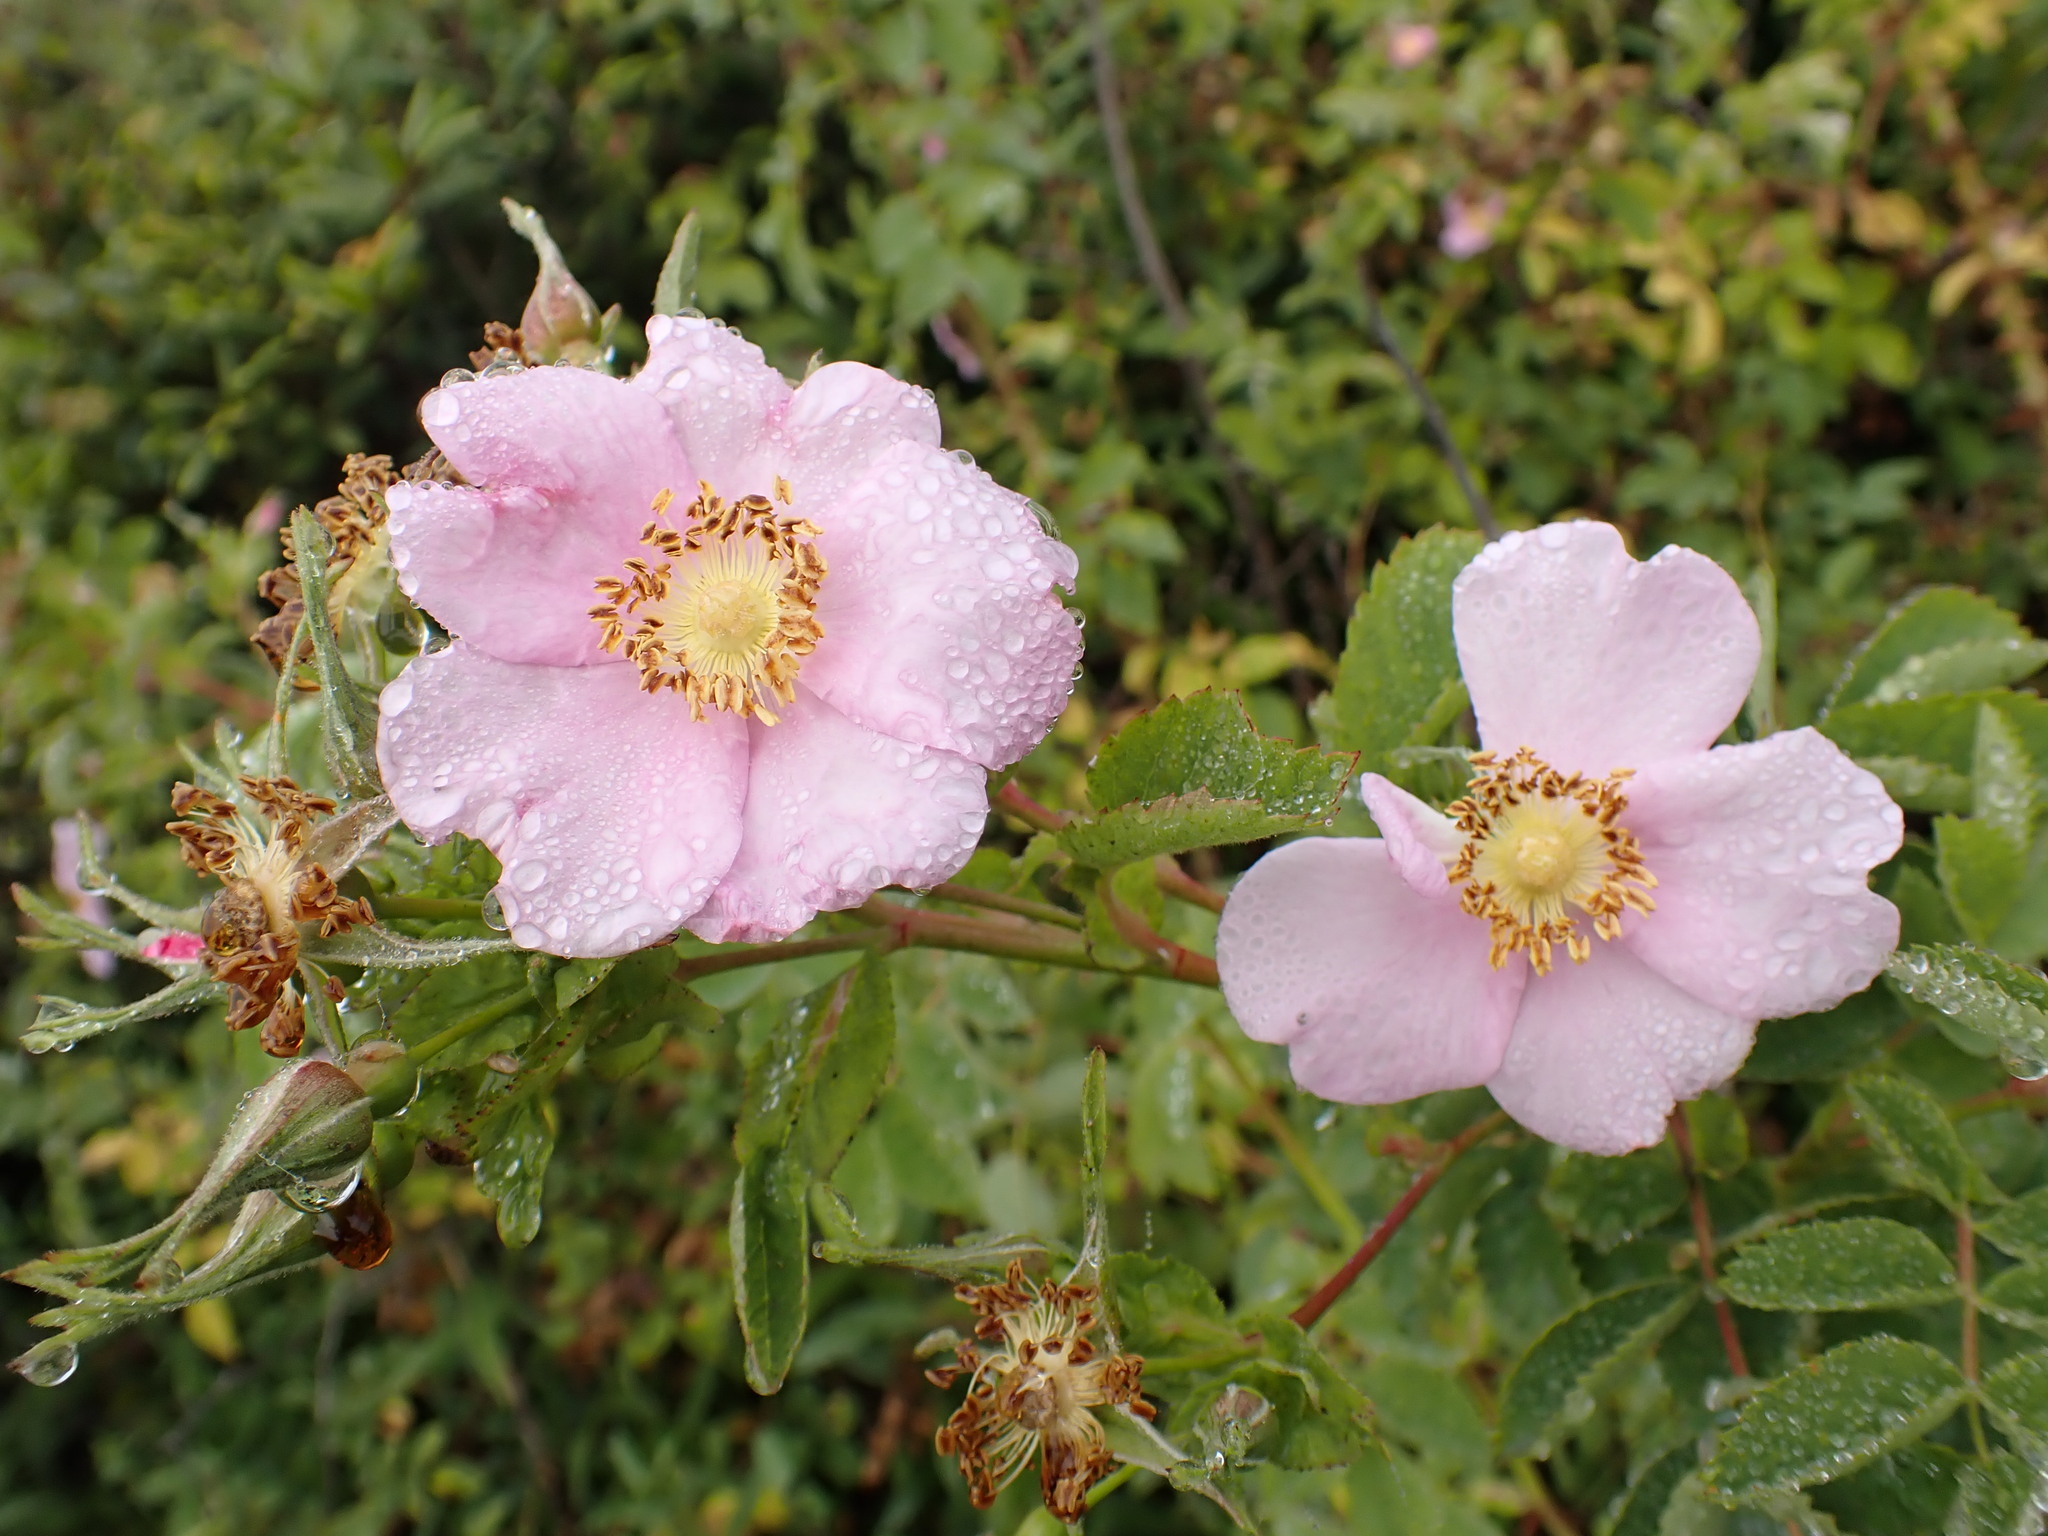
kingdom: Plantae
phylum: Tracheophyta
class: Magnoliopsida
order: Rosales
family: Rosaceae
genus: Rosa
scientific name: Rosa californica
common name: California rose
